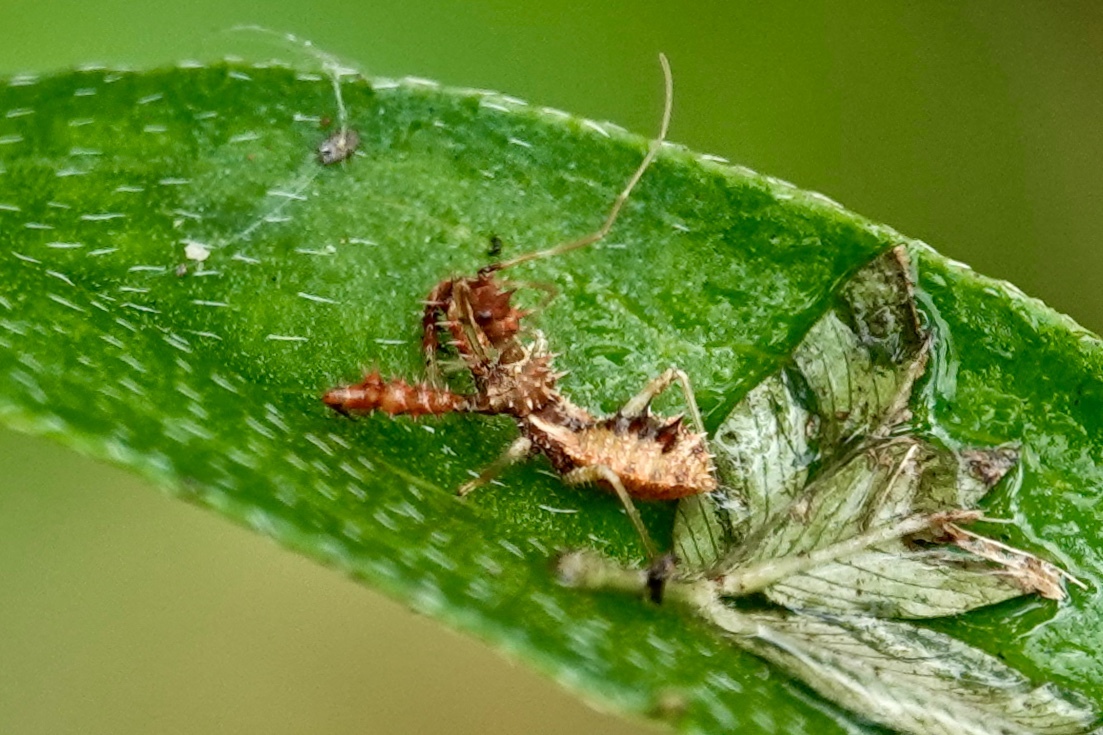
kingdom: Animalia
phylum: Arthropoda
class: Insecta
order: Hemiptera
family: Reduviidae
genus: Sinea
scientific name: Sinea spinipes
